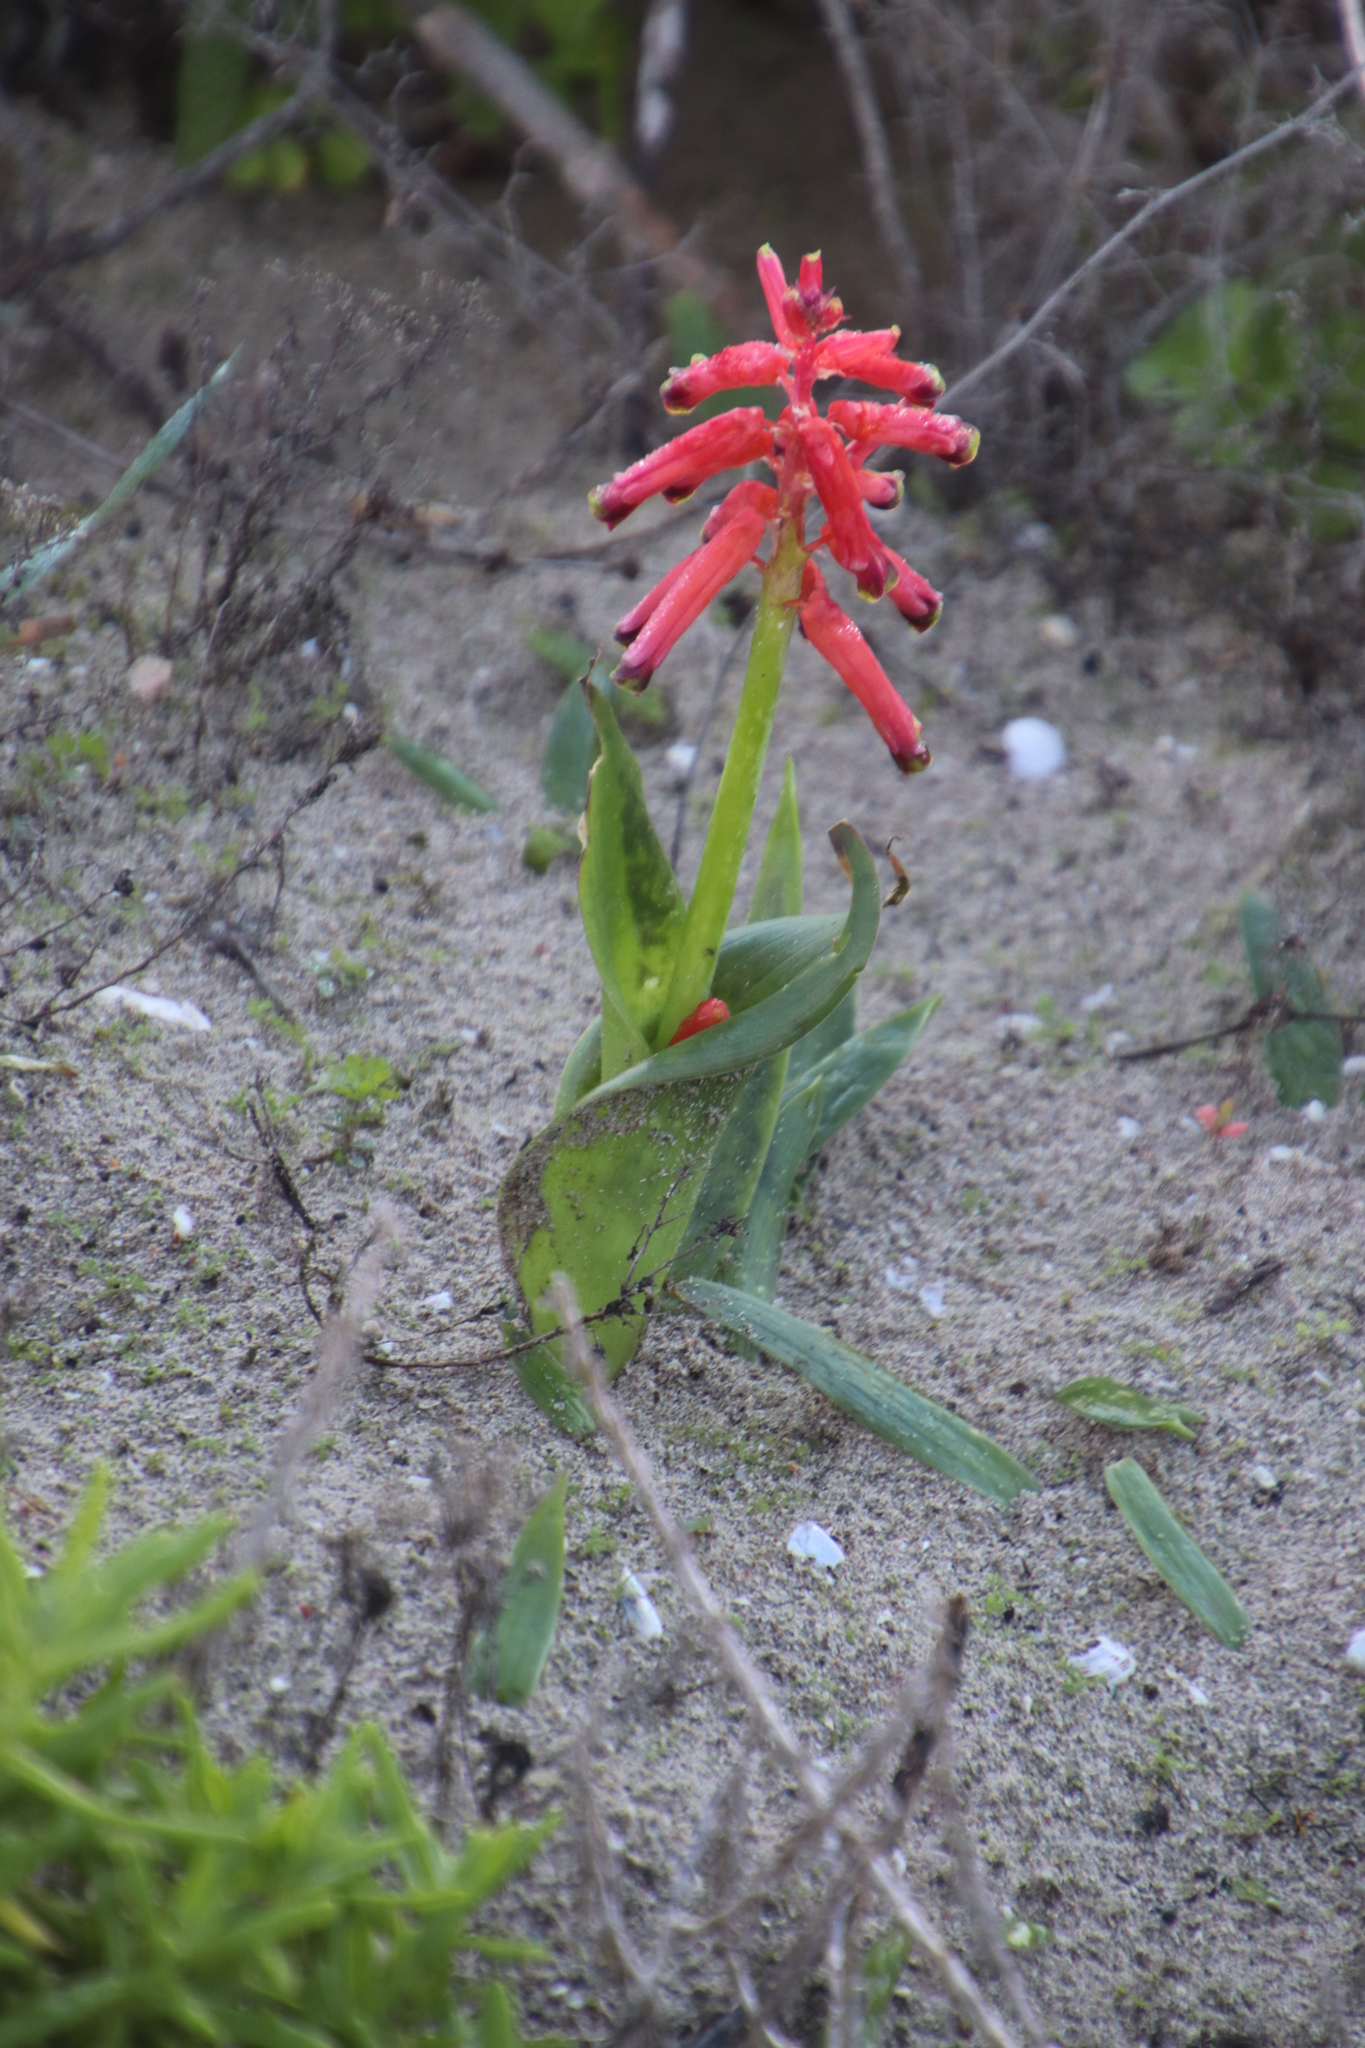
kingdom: Plantae
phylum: Tracheophyta
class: Liliopsida
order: Asparagales
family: Asparagaceae
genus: Lachenalia
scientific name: Lachenalia bulbifera
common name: Red lachenalia
